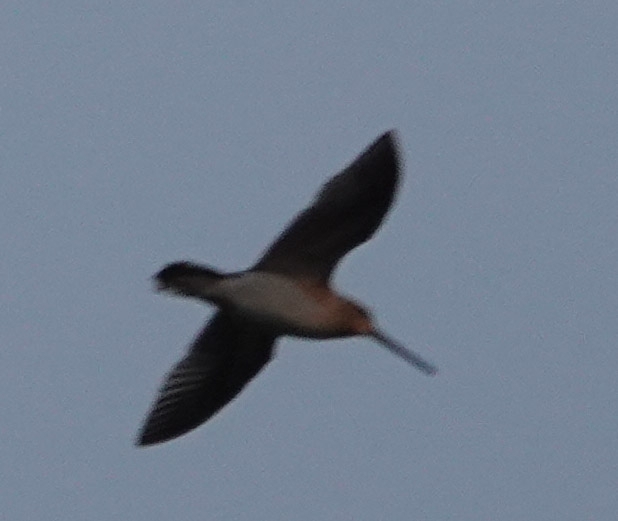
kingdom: Animalia
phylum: Chordata
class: Aves
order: Charadriiformes
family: Scolopacidae
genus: Gallinago
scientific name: Gallinago gallinago
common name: Common snipe
